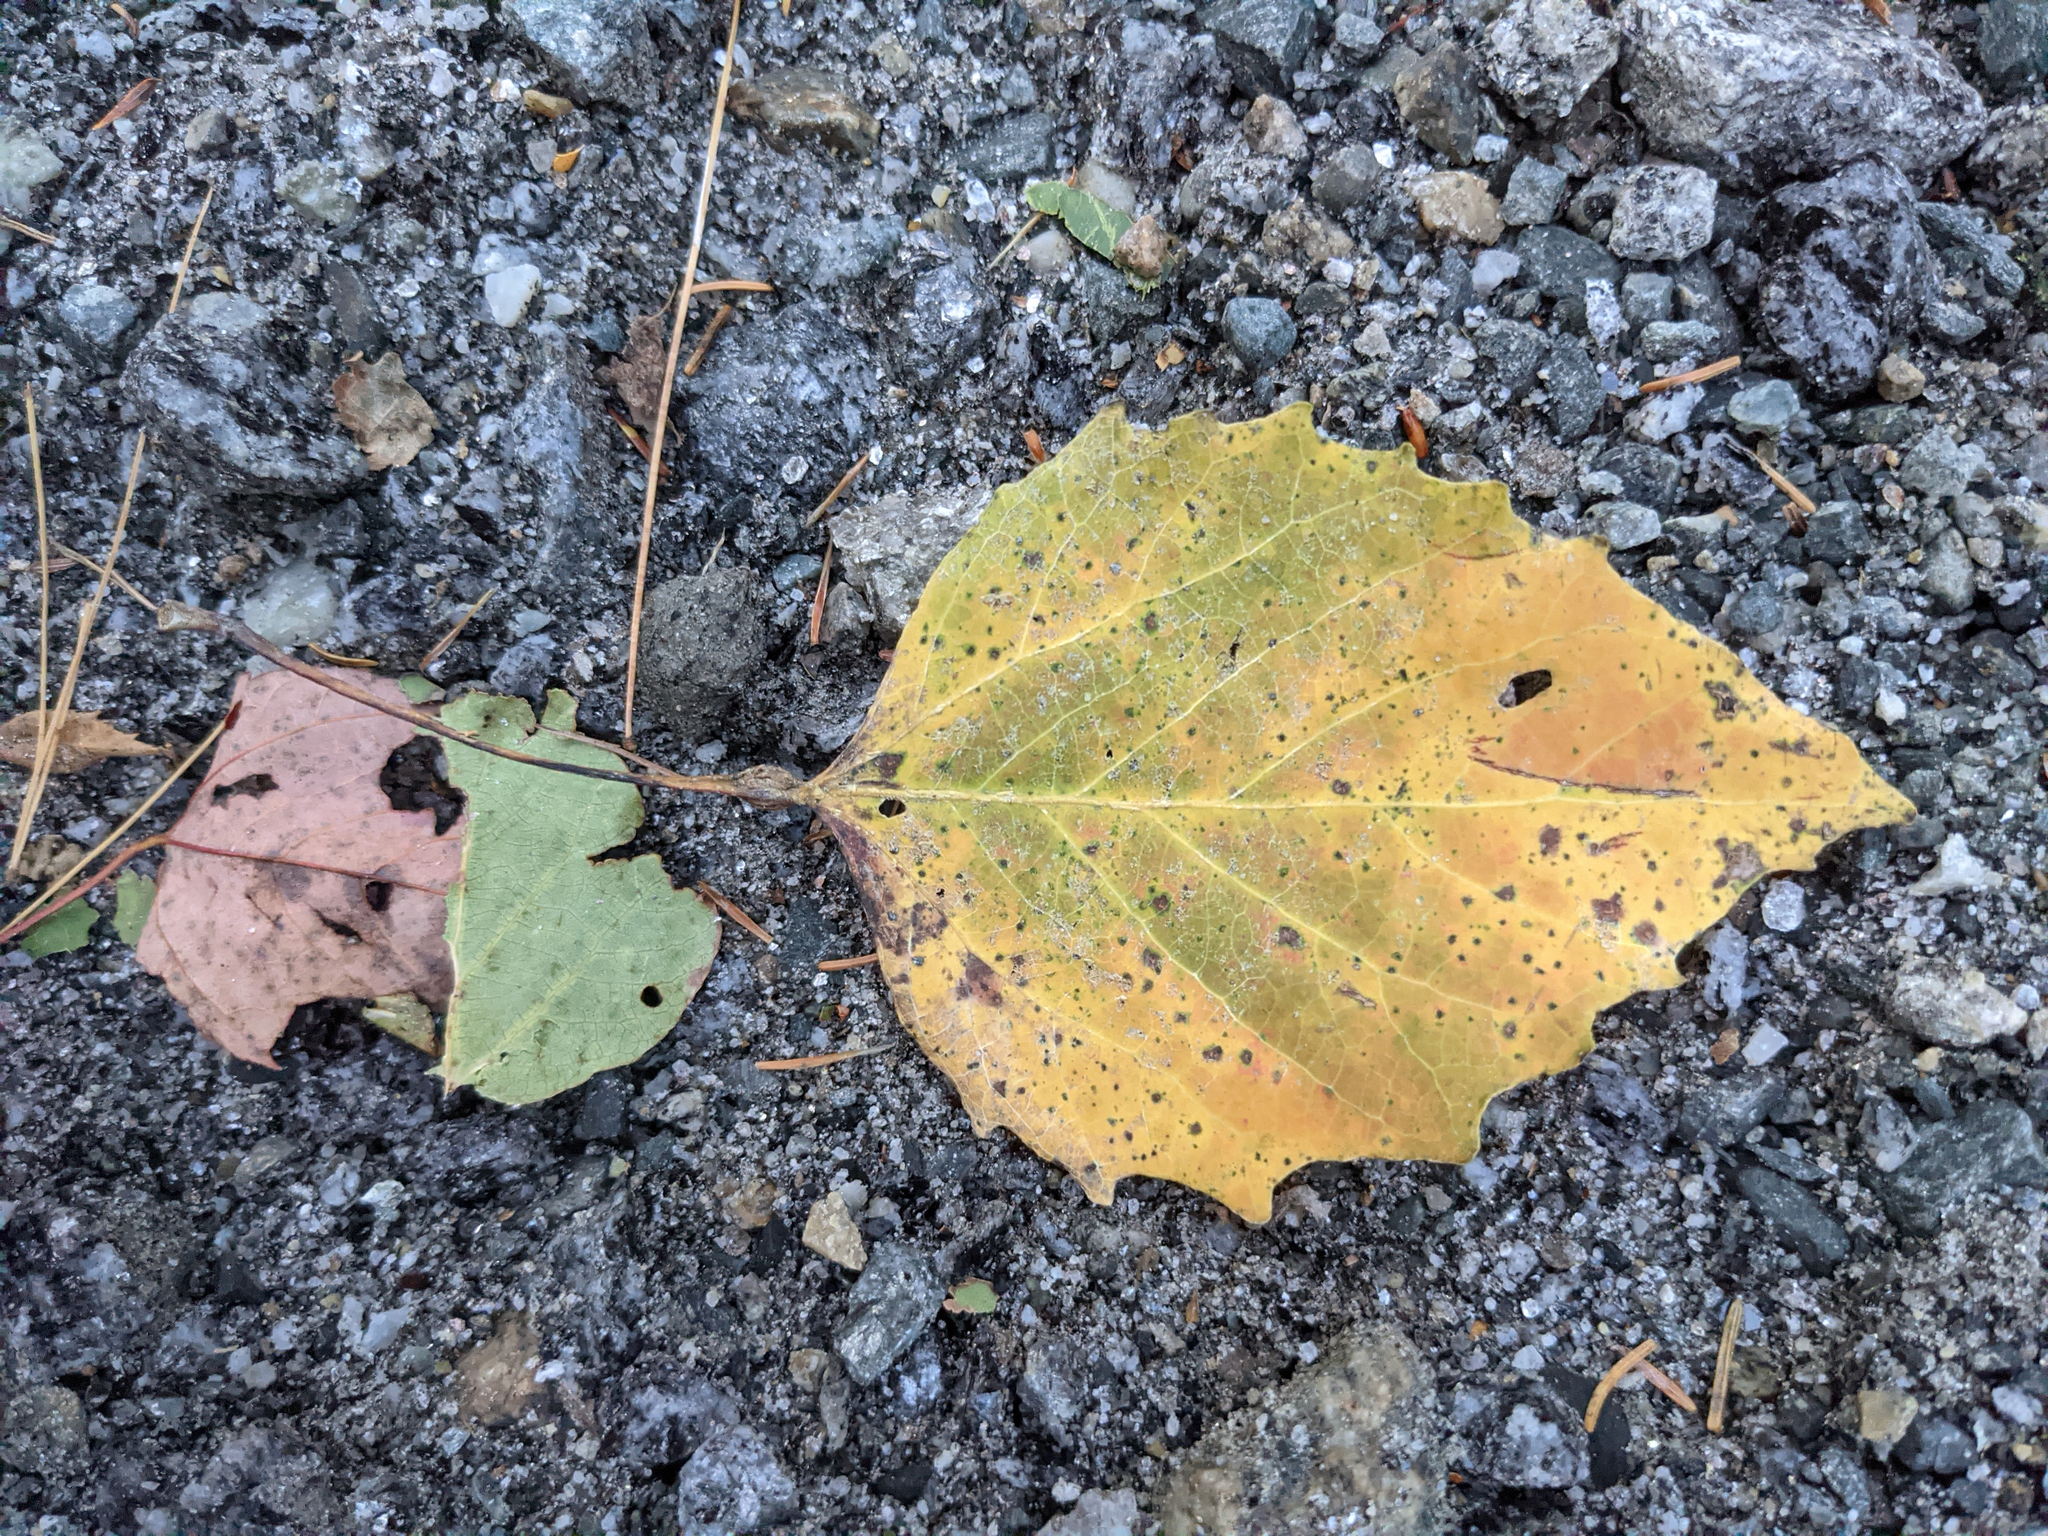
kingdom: Plantae
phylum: Tracheophyta
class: Magnoliopsida
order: Malpighiales
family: Salicaceae
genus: Populus
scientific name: Populus grandidentata
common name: Bigtooth aspen
